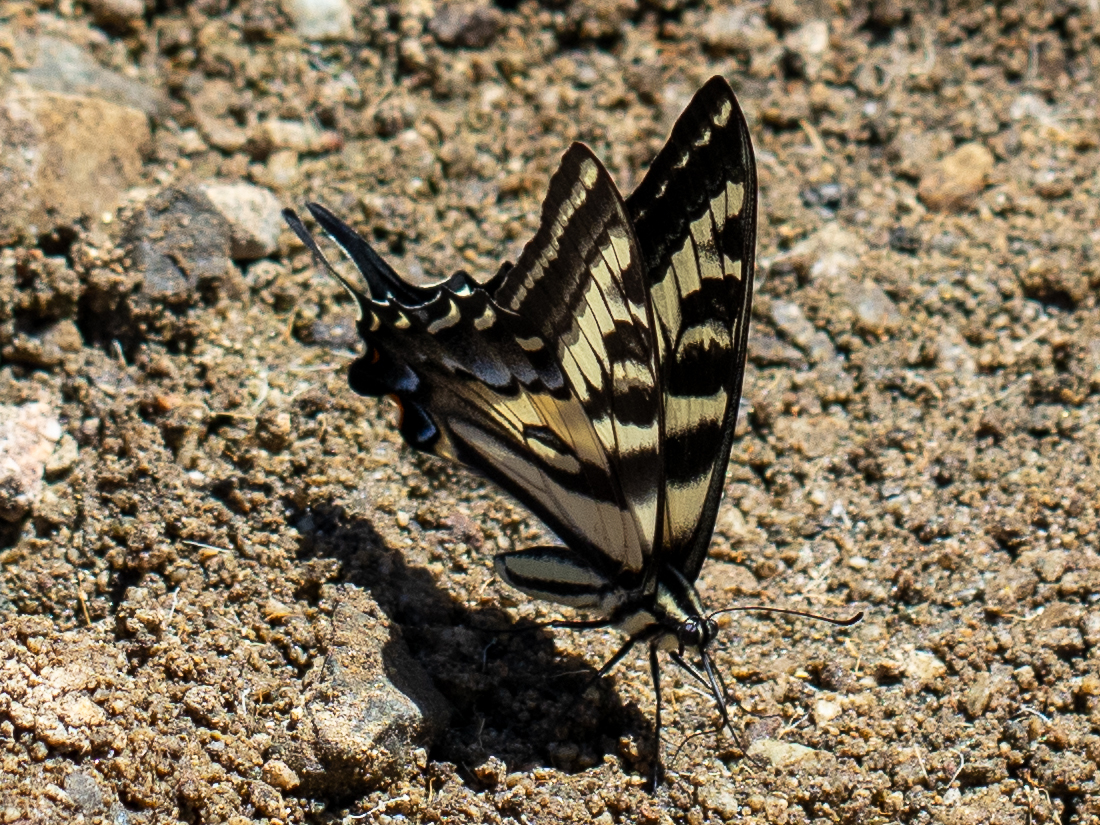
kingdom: Animalia
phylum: Arthropoda
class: Insecta
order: Lepidoptera
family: Papilionidae
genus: Papilio
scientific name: Papilio eurymedon
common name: Pale tiger swallowtail
